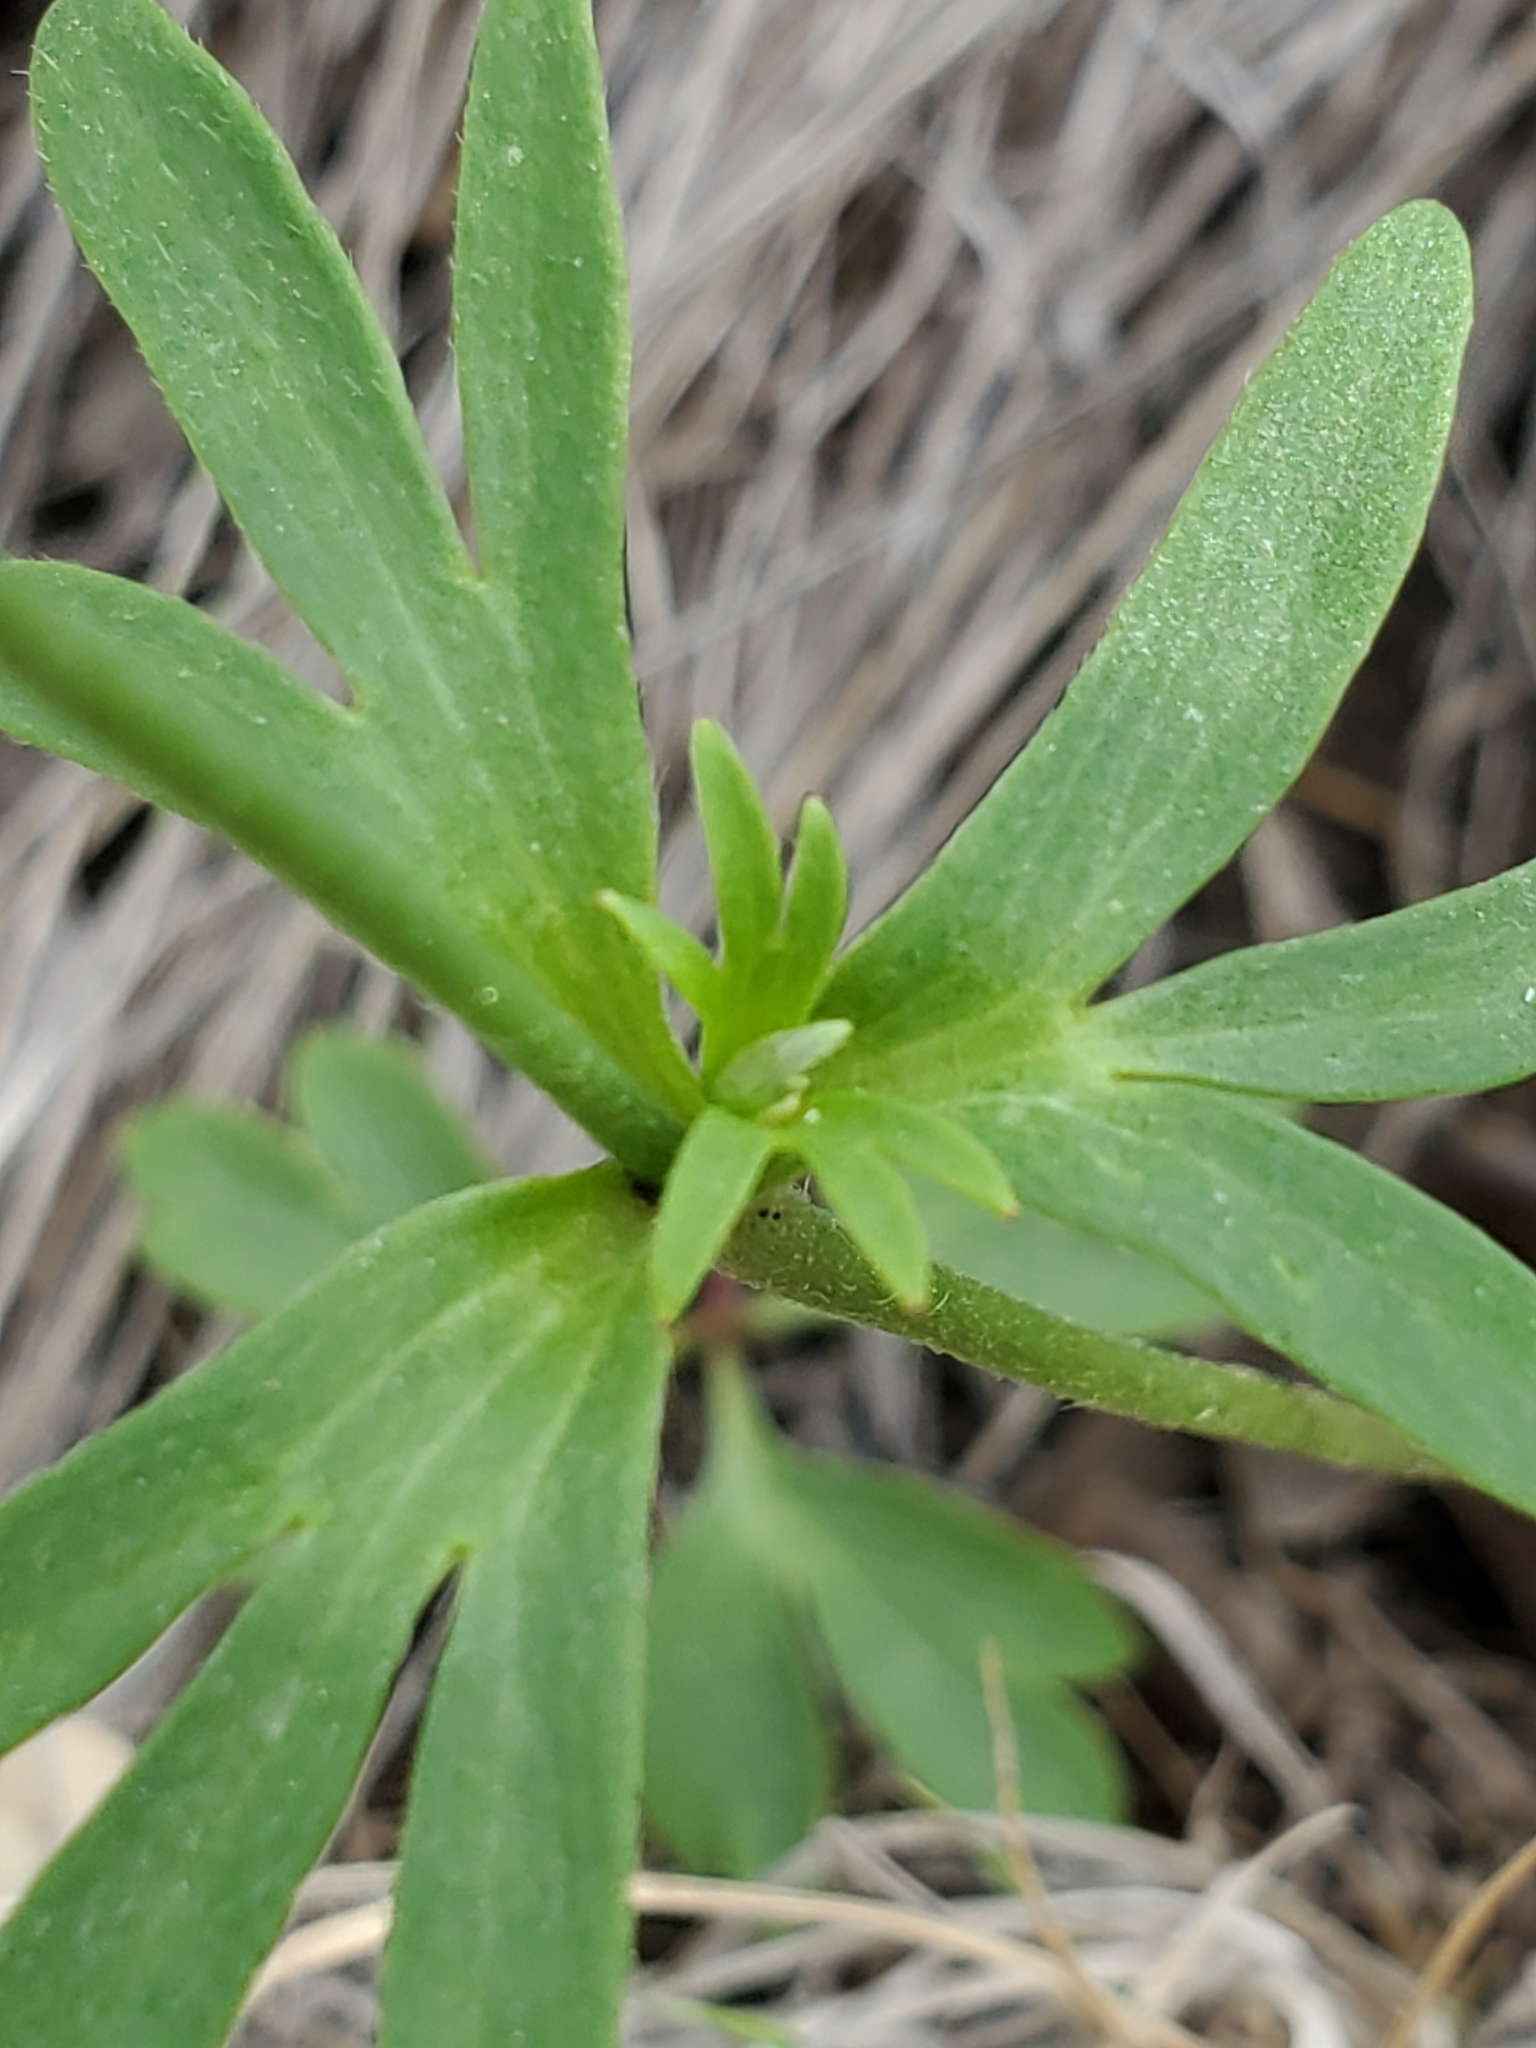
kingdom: Plantae
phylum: Tracheophyta
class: Magnoliopsida
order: Ranunculales
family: Ranunculaceae
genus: Anemone
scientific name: Anemone edwardsiana
